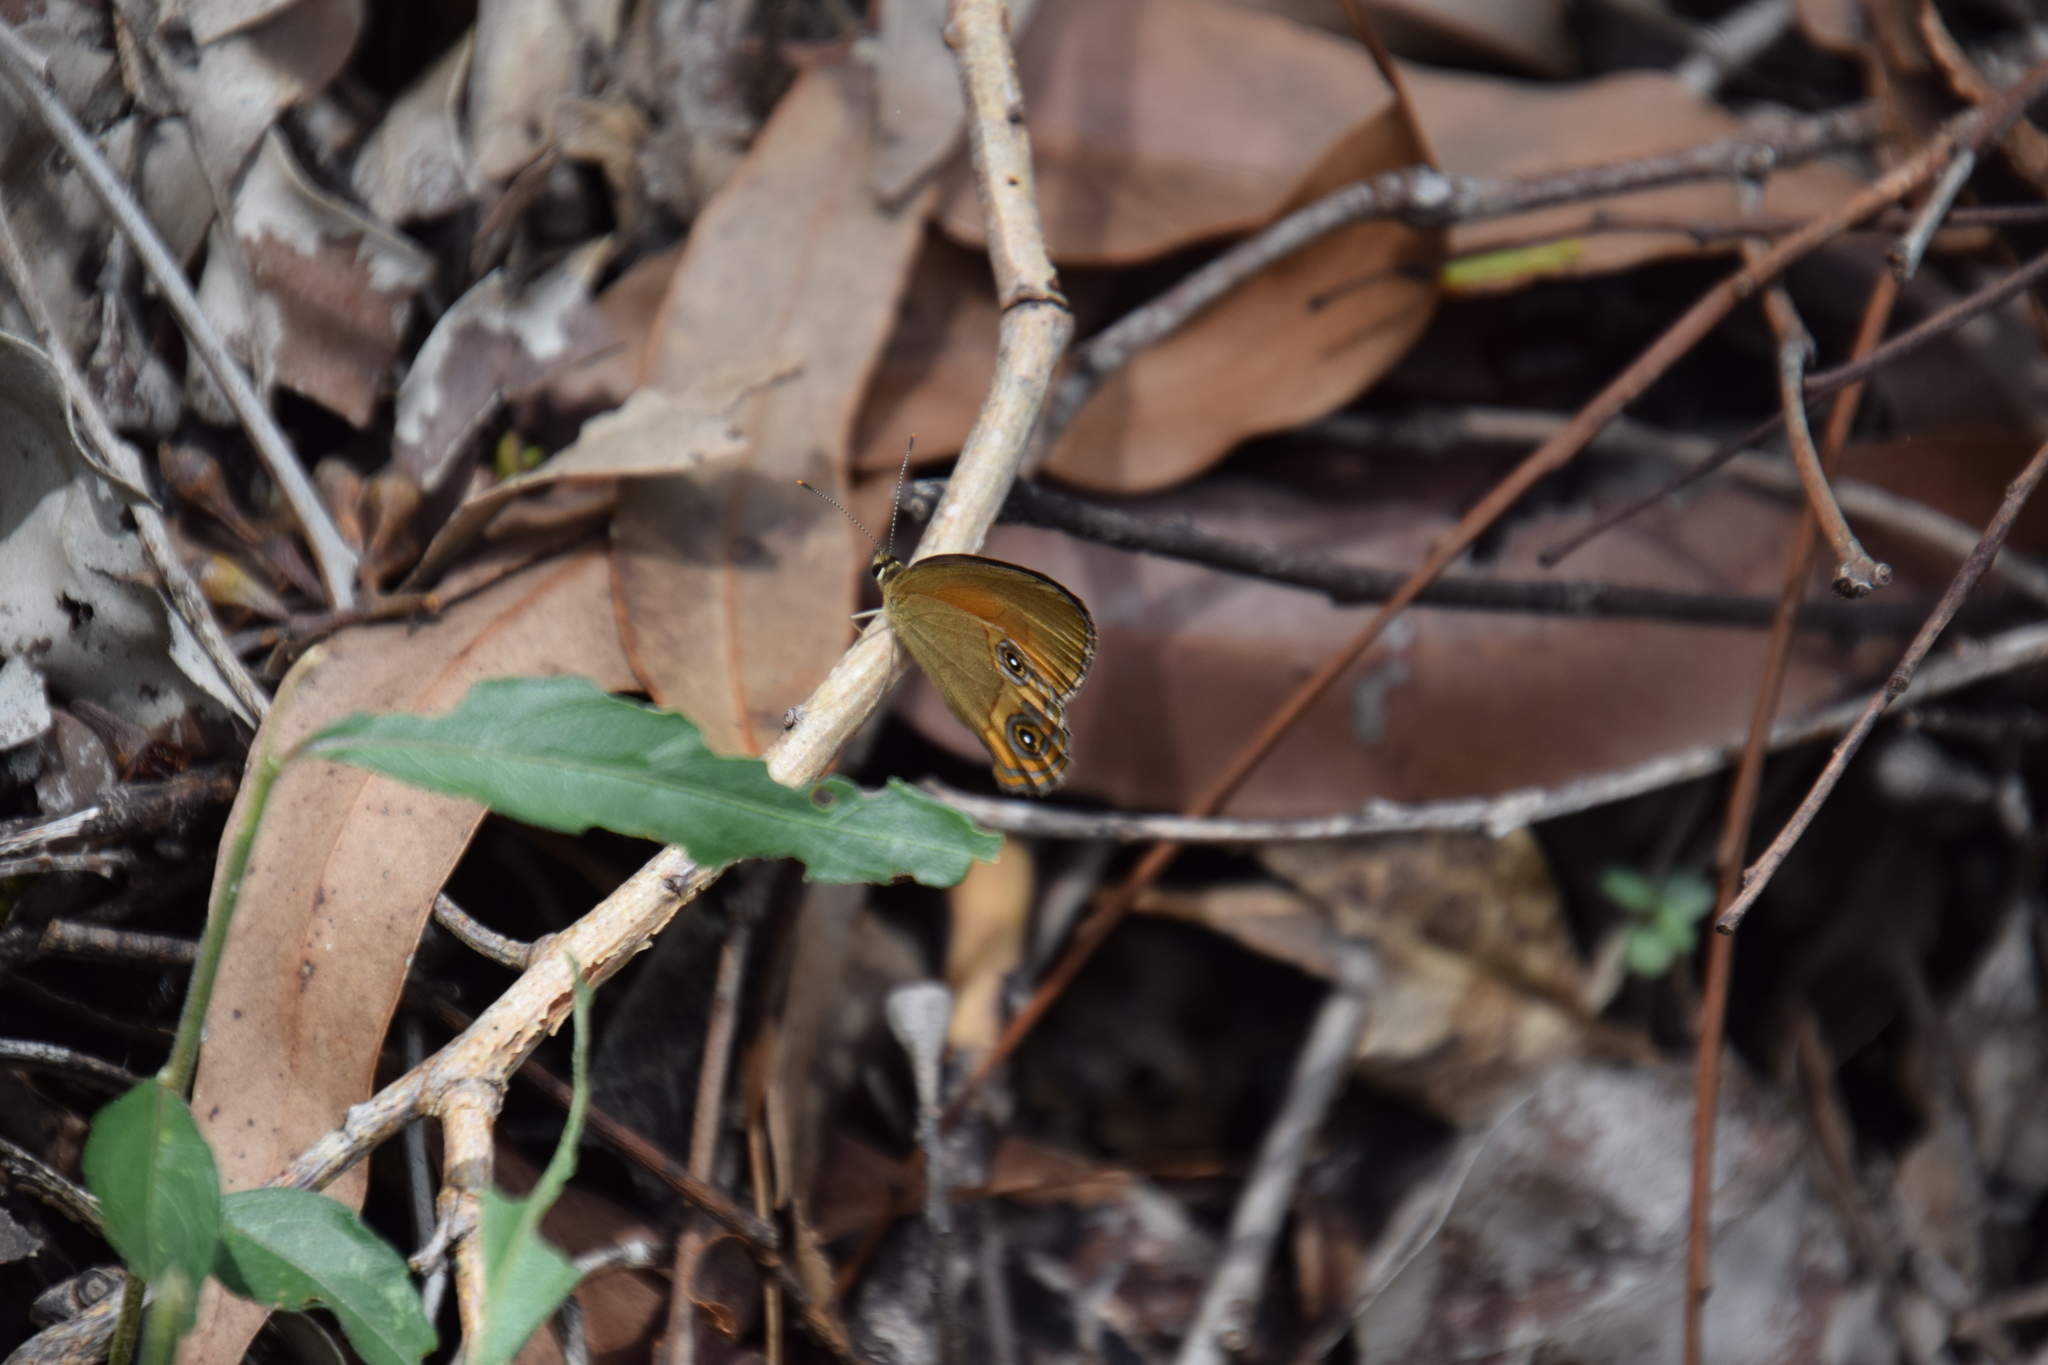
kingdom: Animalia
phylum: Arthropoda
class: Insecta
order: Lepidoptera
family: Nymphalidae
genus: Hypocysta
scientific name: Hypocysta adiante
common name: Orange ringlet
